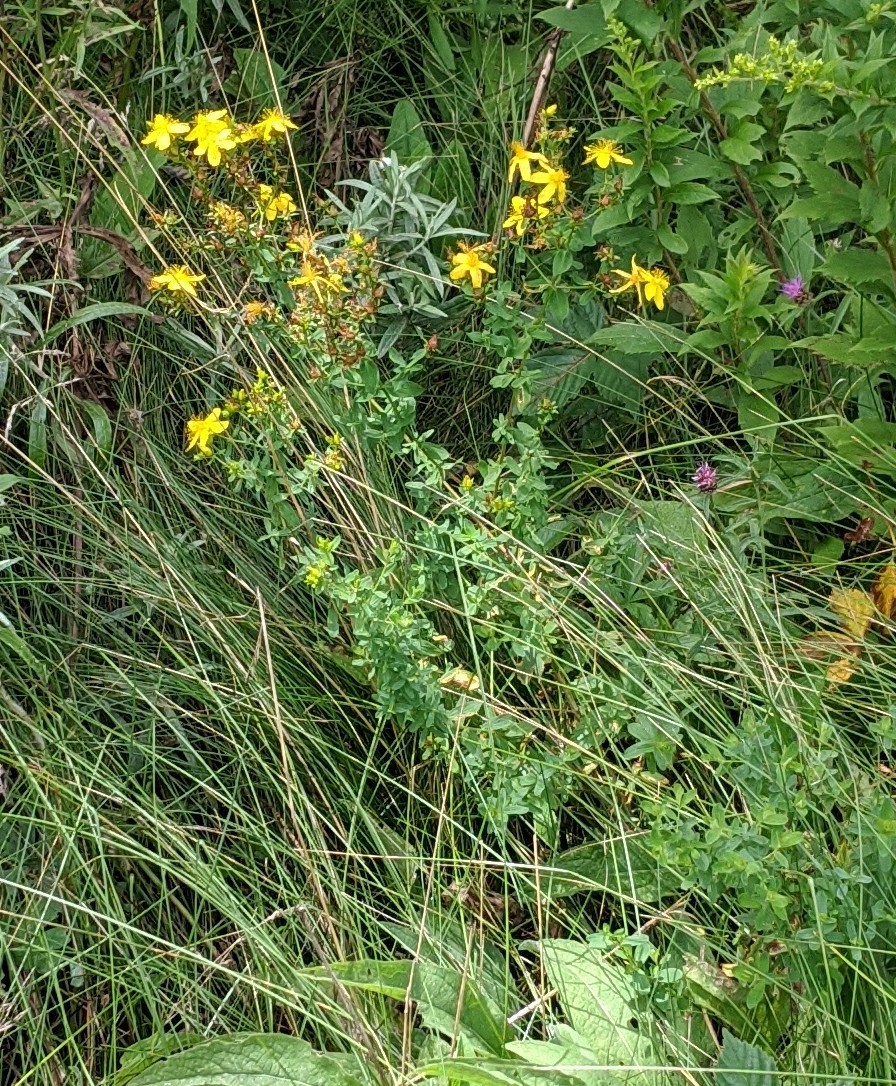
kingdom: Plantae
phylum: Tracheophyta
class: Magnoliopsida
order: Malpighiales
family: Hypericaceae
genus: Hypericum
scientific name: Hypericum perforatum
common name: Common st. johnswort
